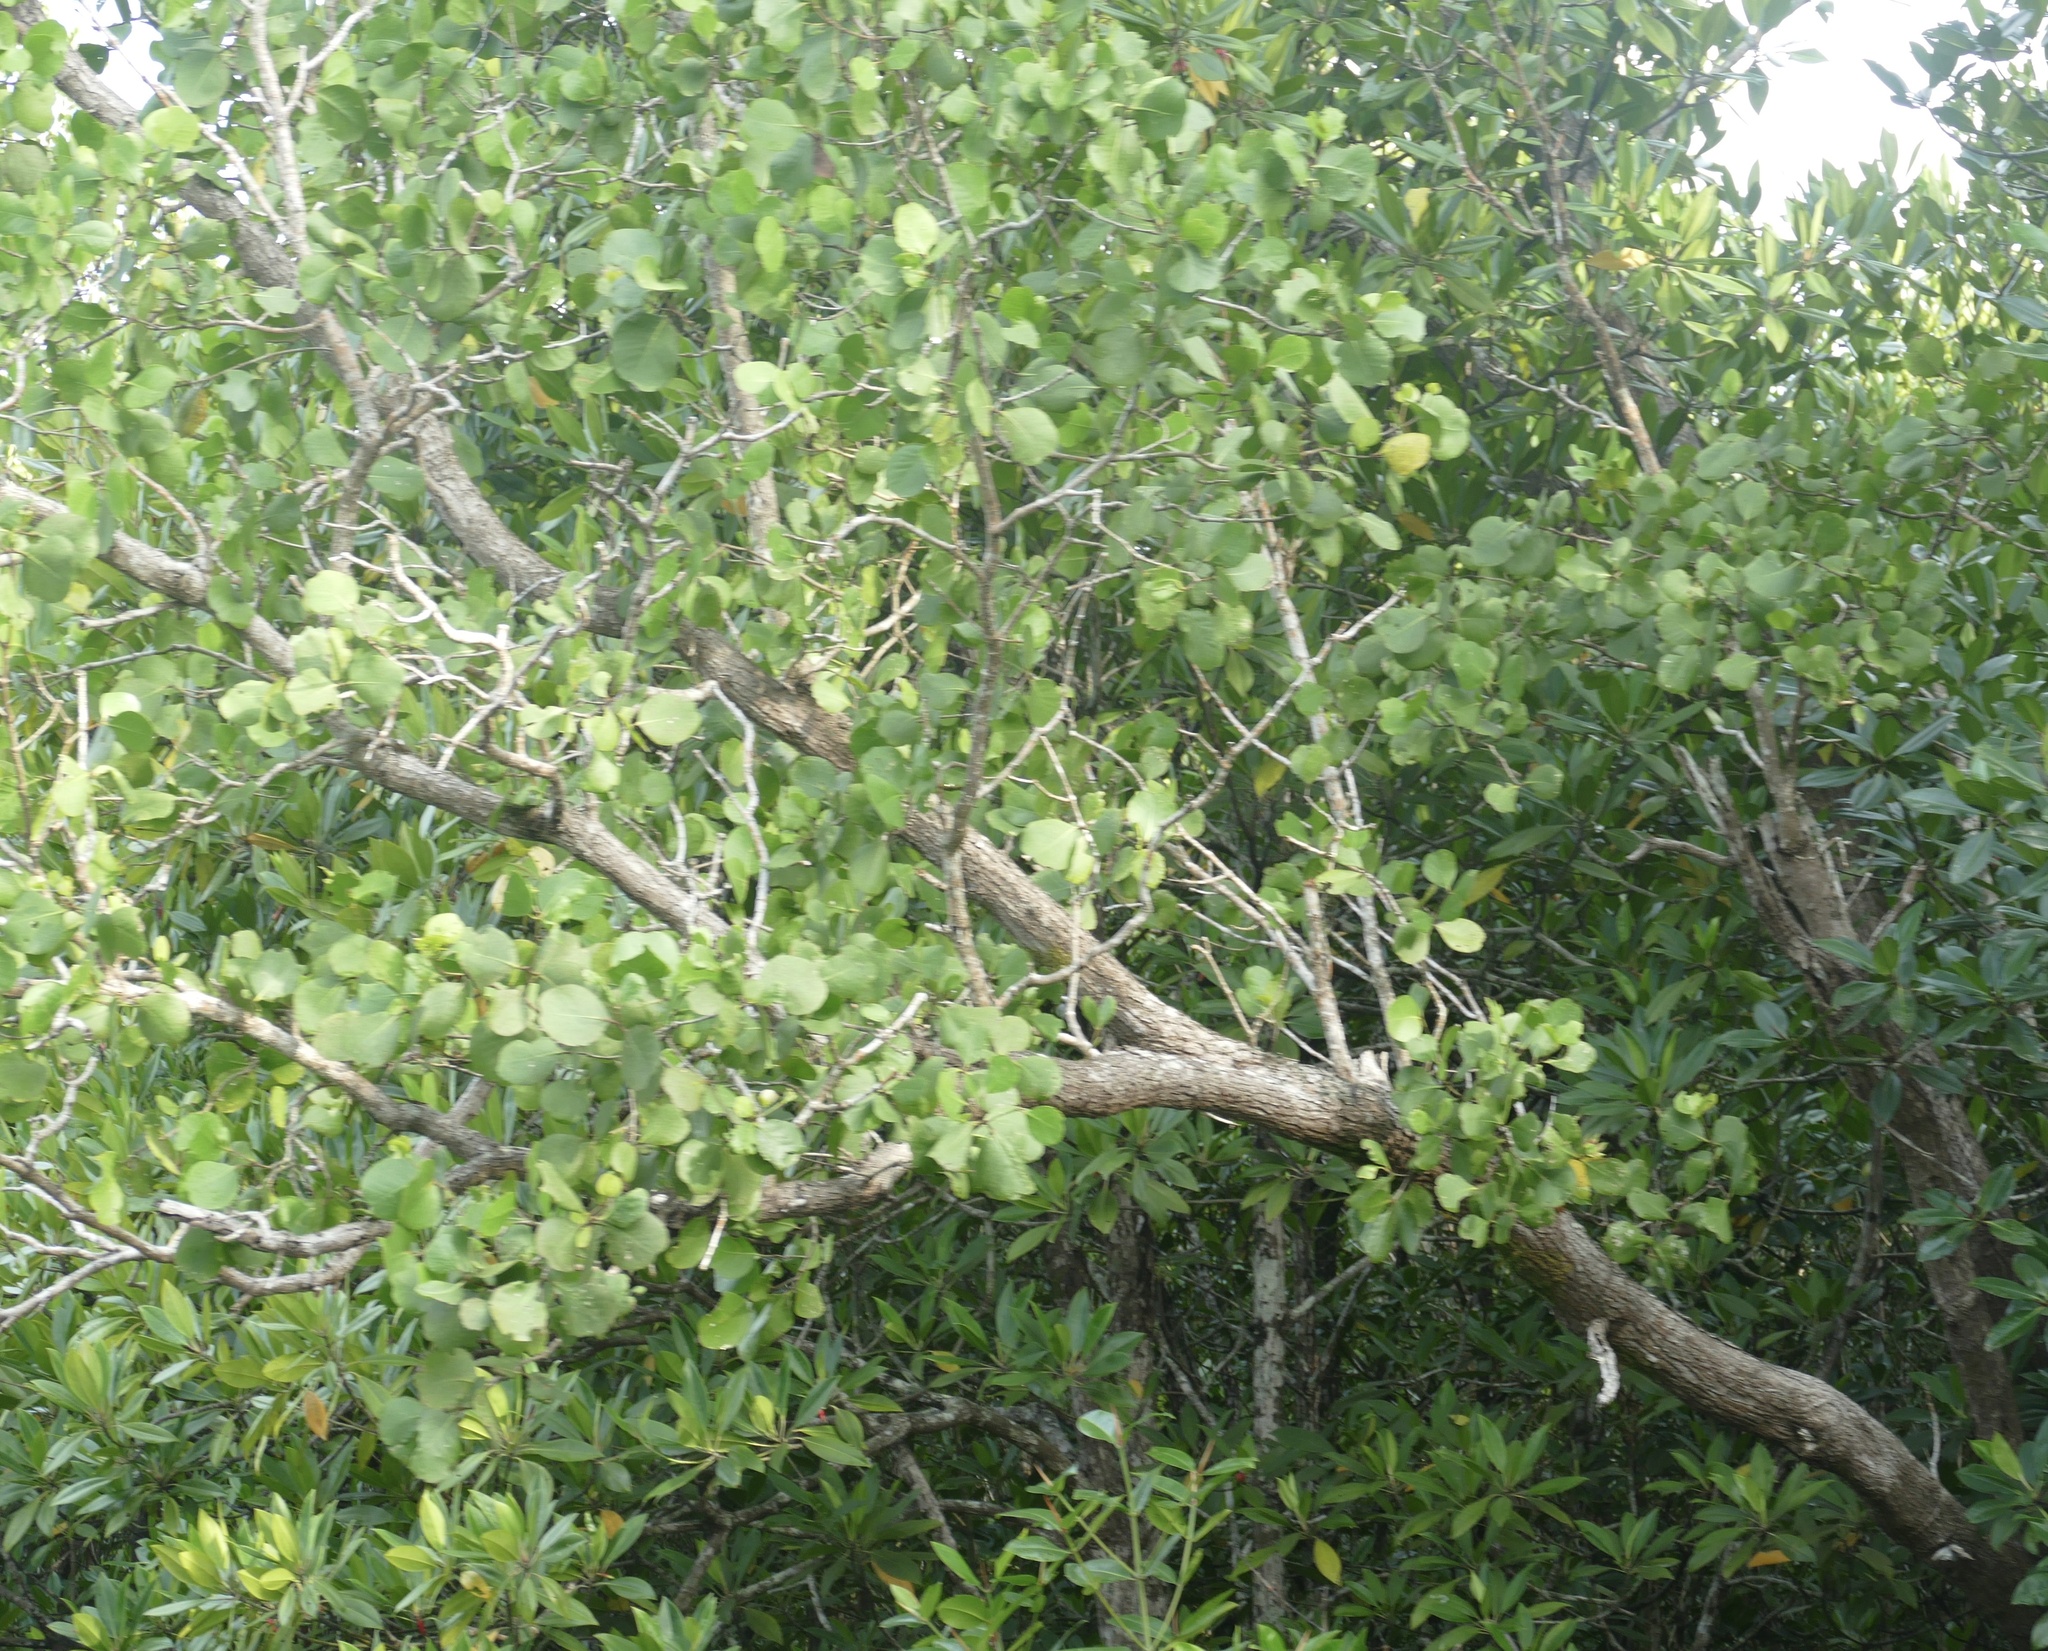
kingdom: Plantae
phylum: Tracheophyta
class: Magnoliopsida
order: Myrtales
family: Lythraceae
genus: Sonneratia
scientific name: Sonneratia alba
